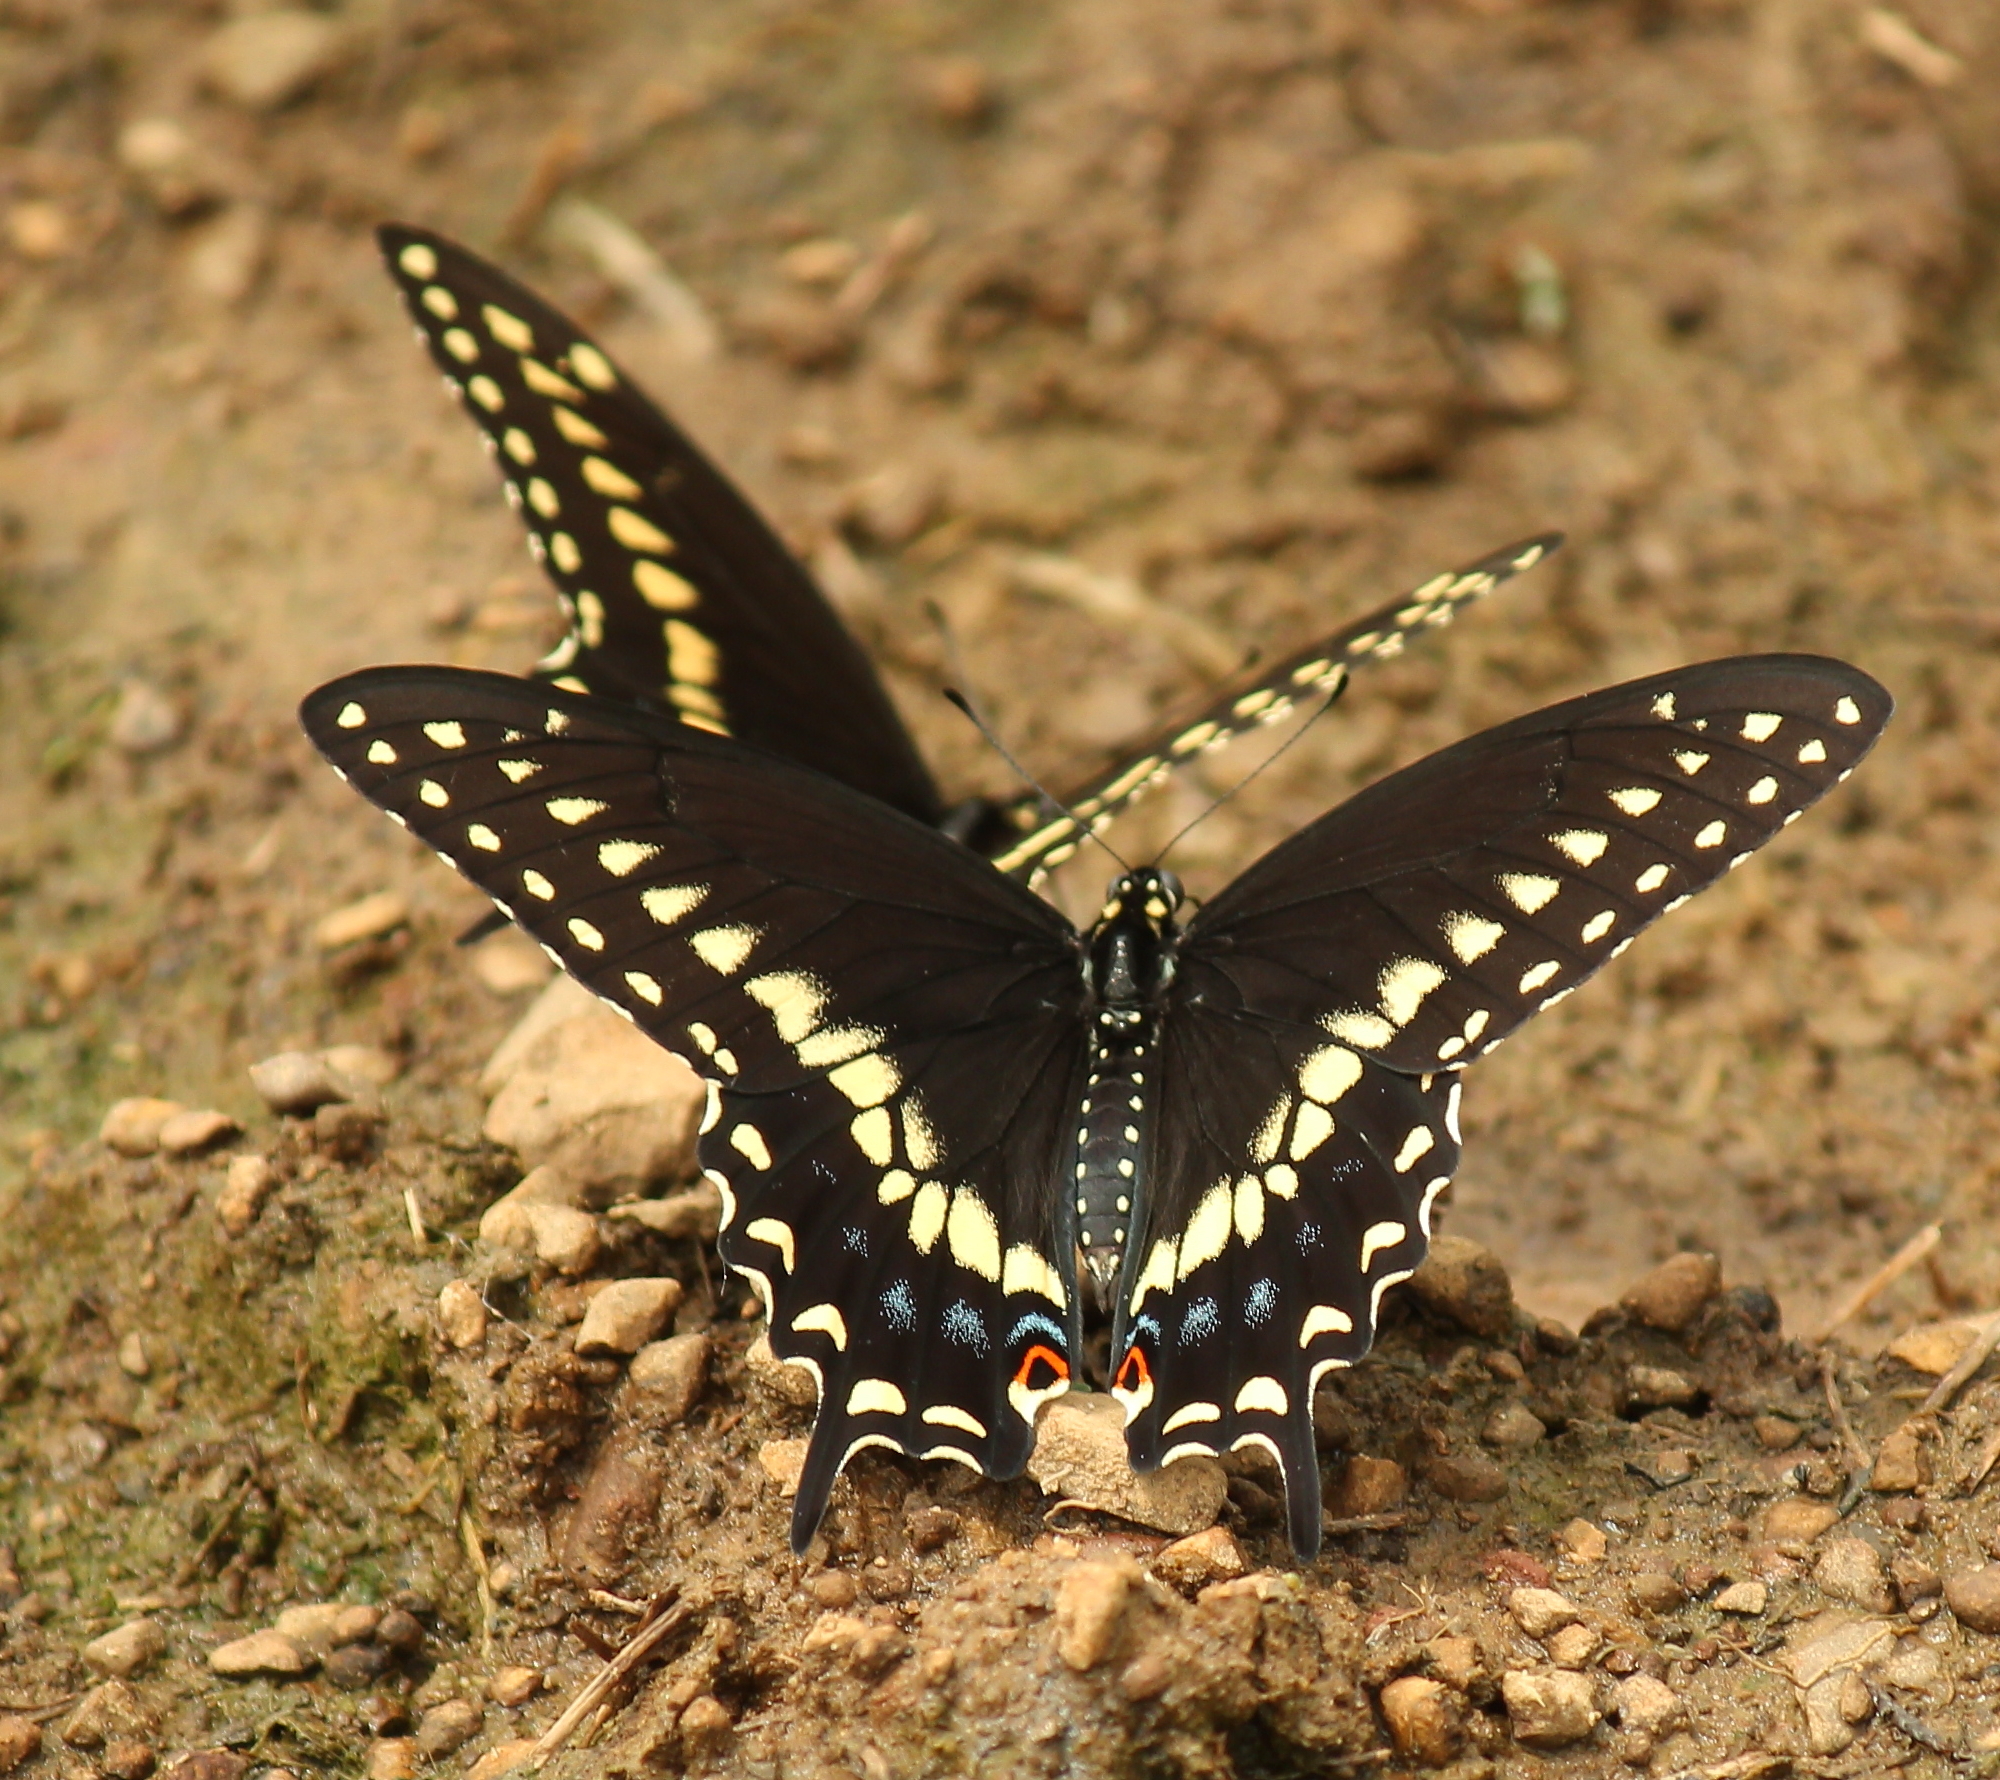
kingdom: Animalia
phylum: Arthropoda
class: Insecta
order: Lepidoptera
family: Papilionidae
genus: Papilio
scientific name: Papilio polyxenes
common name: Black swallowtail
